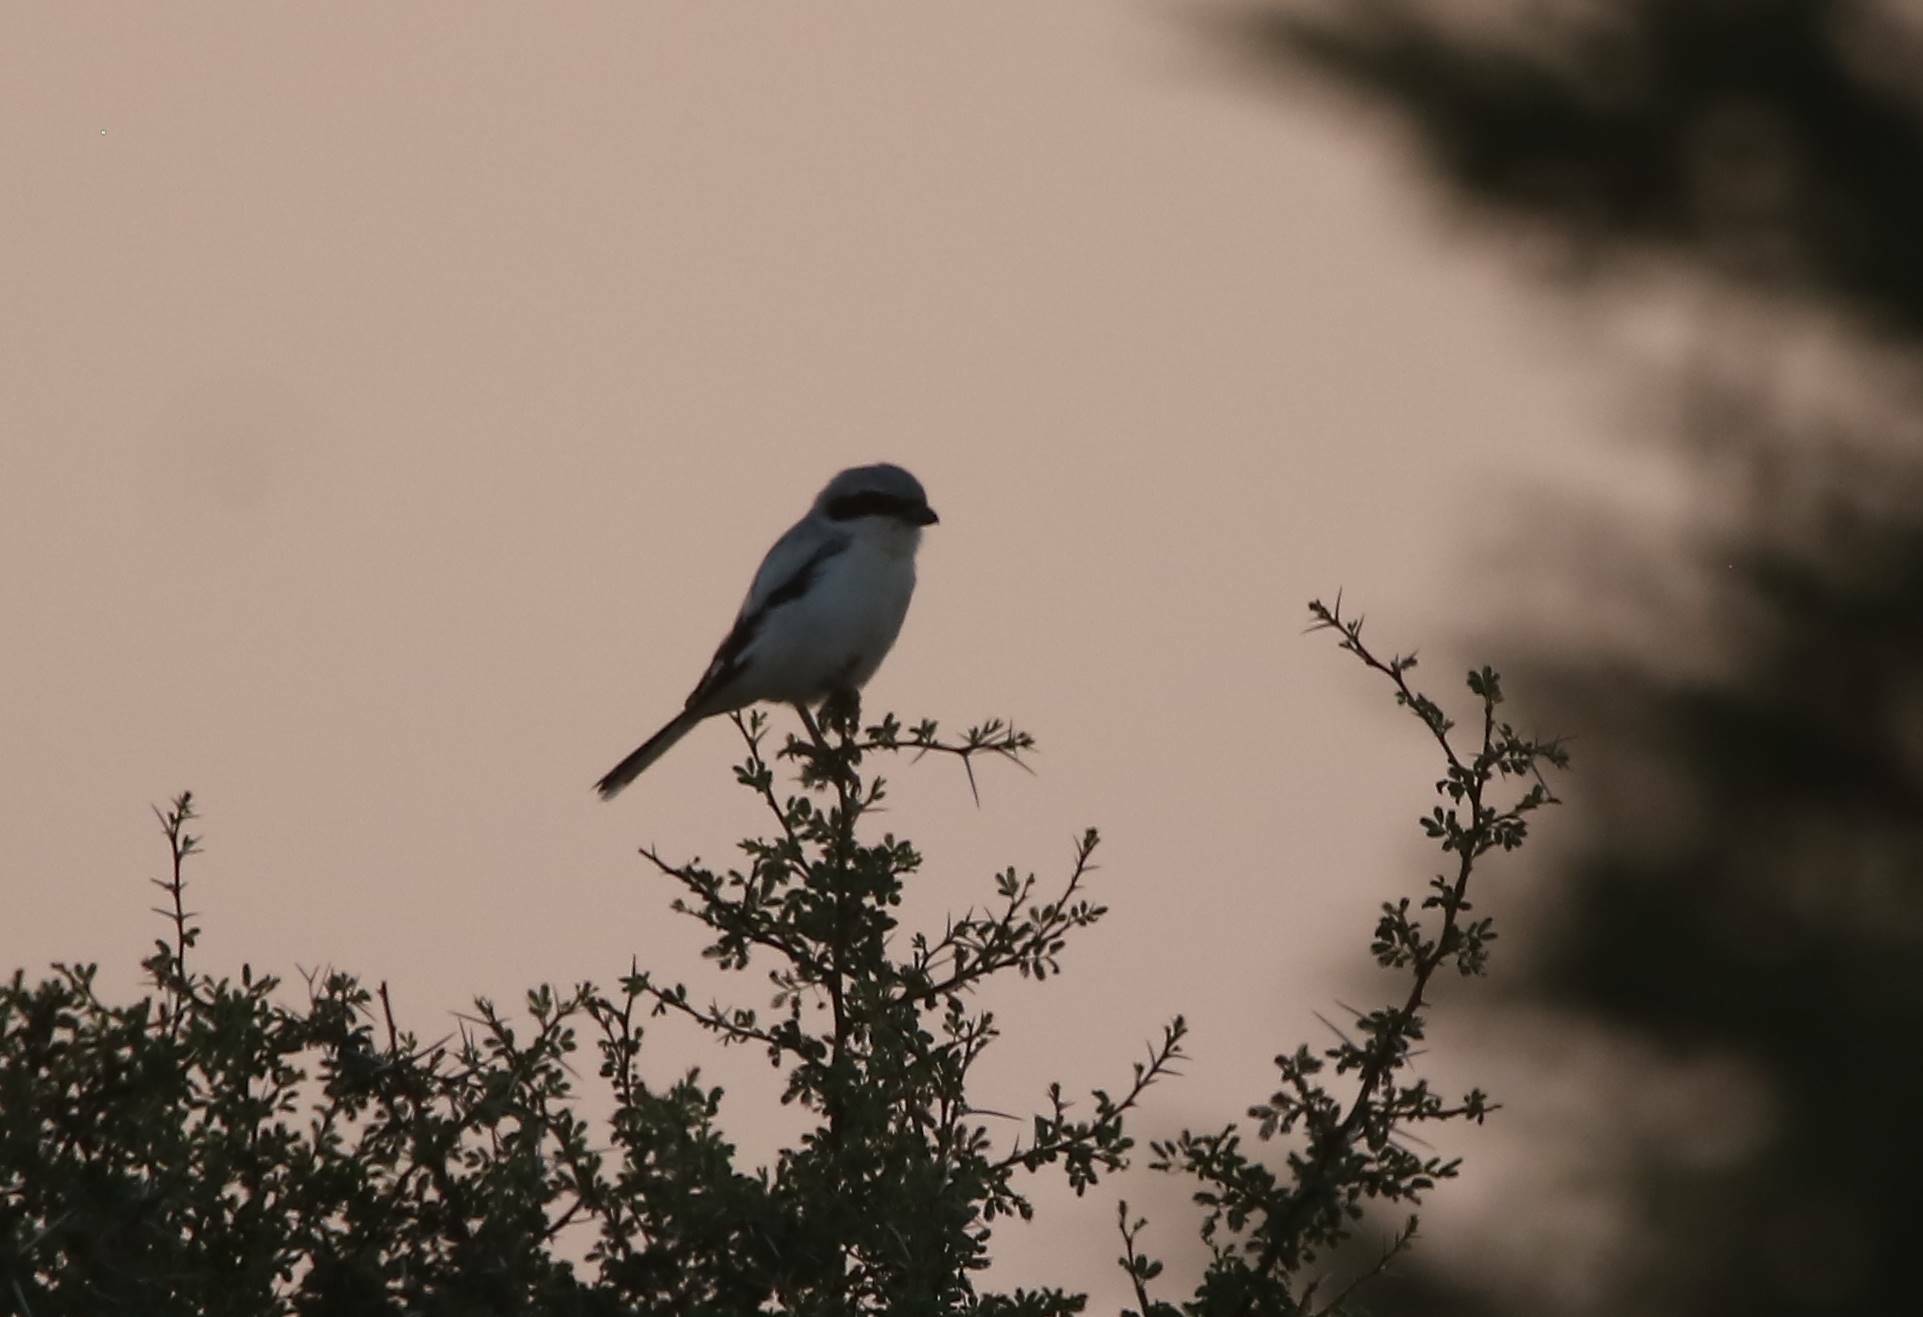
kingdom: Animalia
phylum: Chordata
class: Aves
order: Passeriformes
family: Laniidae
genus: Lanius
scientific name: Lanius excubitor
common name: Great grey shrike
